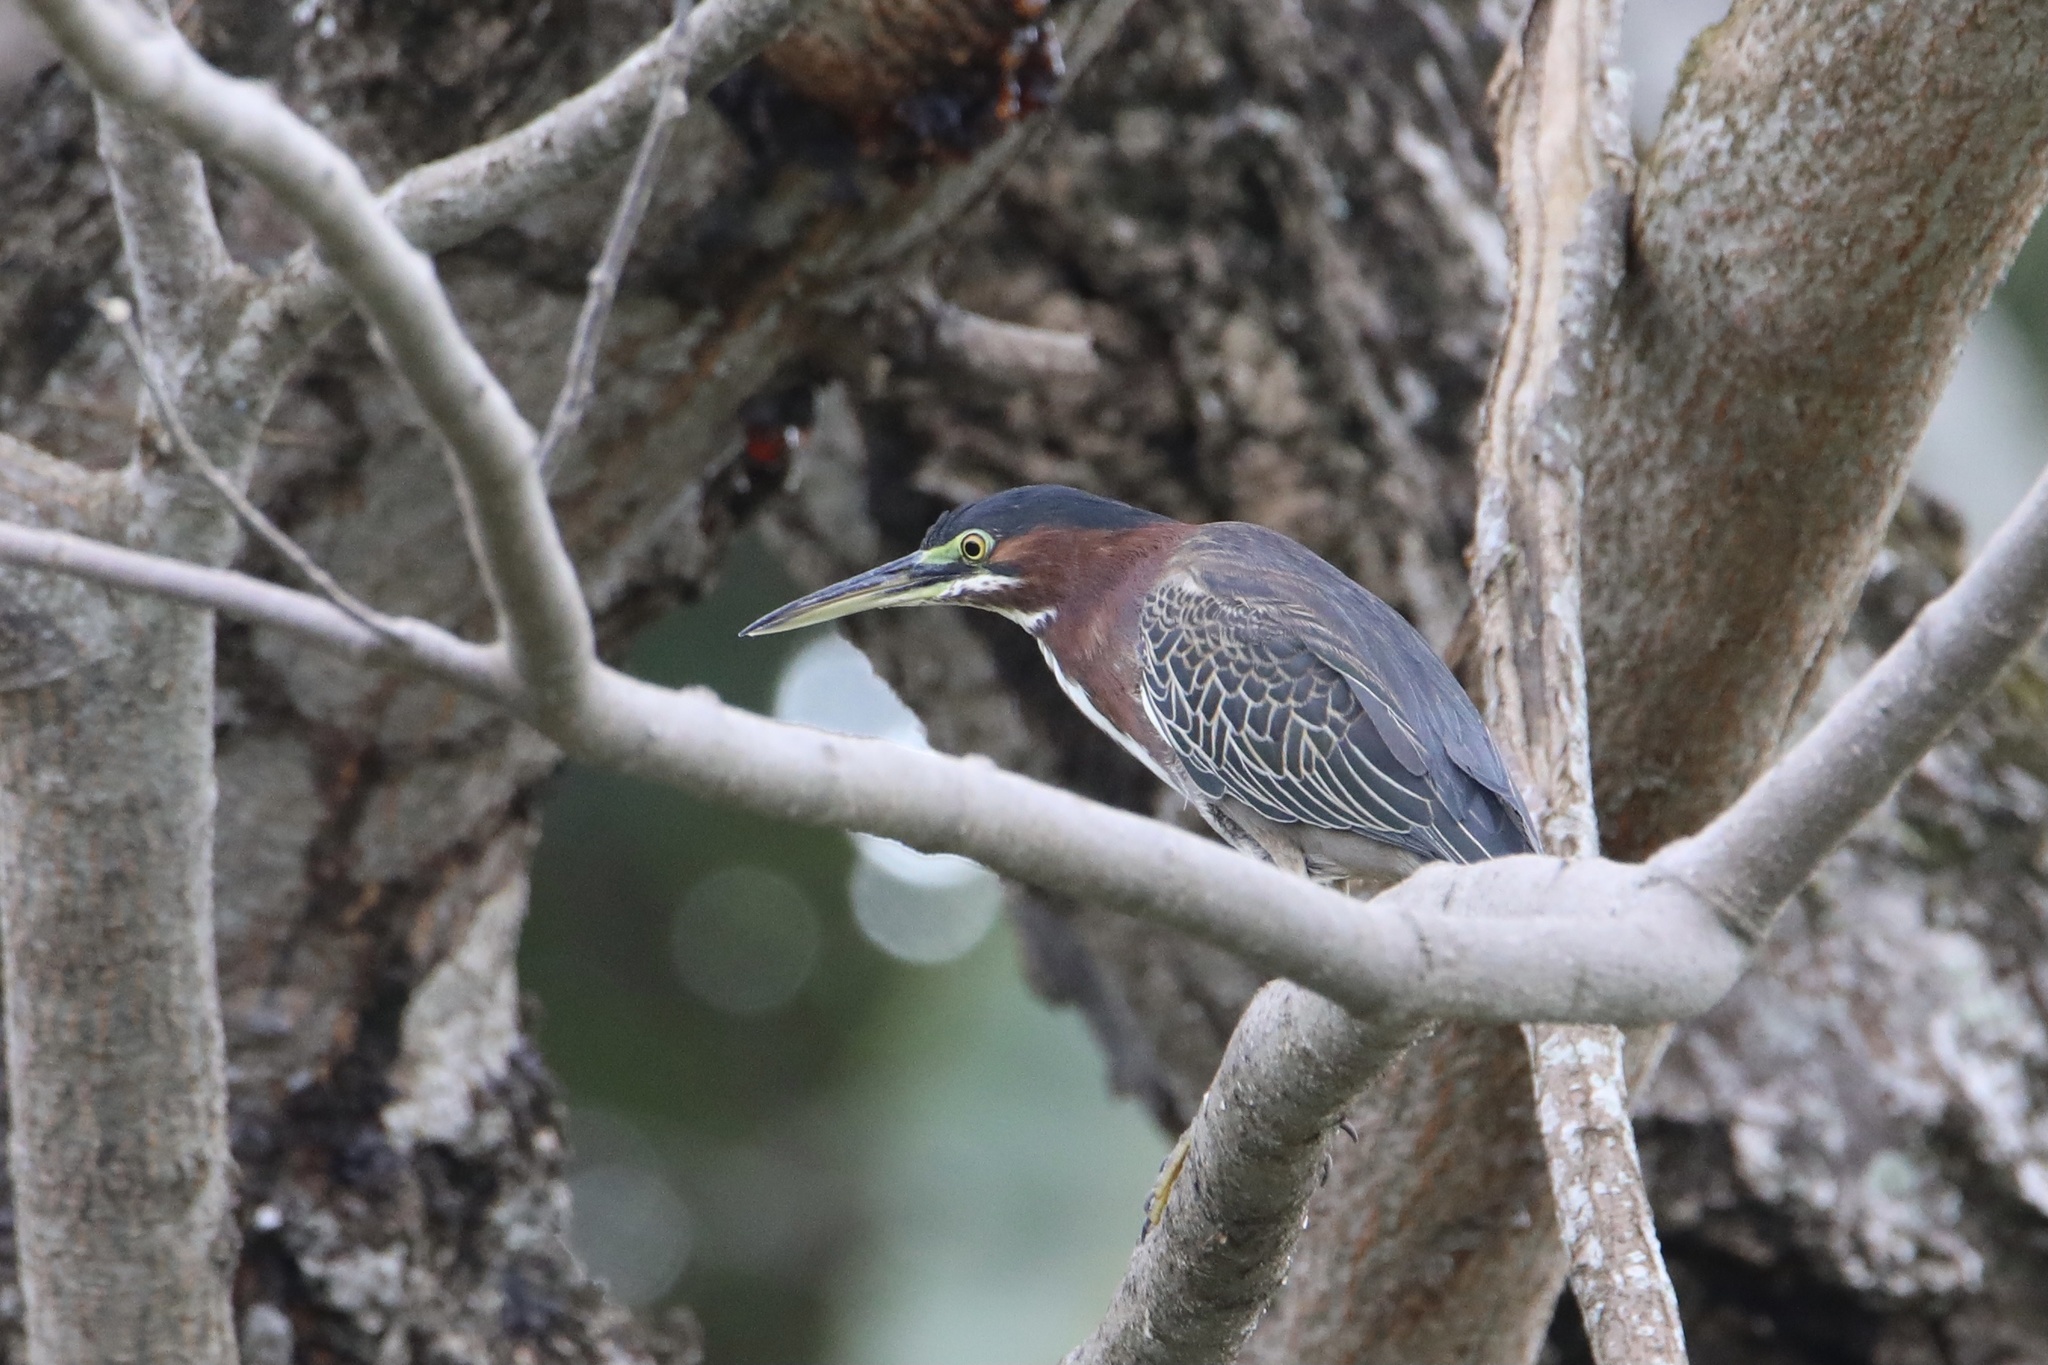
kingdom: Animalia
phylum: Chordata
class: Aves
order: Pelecaniformes
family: Ardeidae
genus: Butorides
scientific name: Butorides virescens
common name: Green heron
